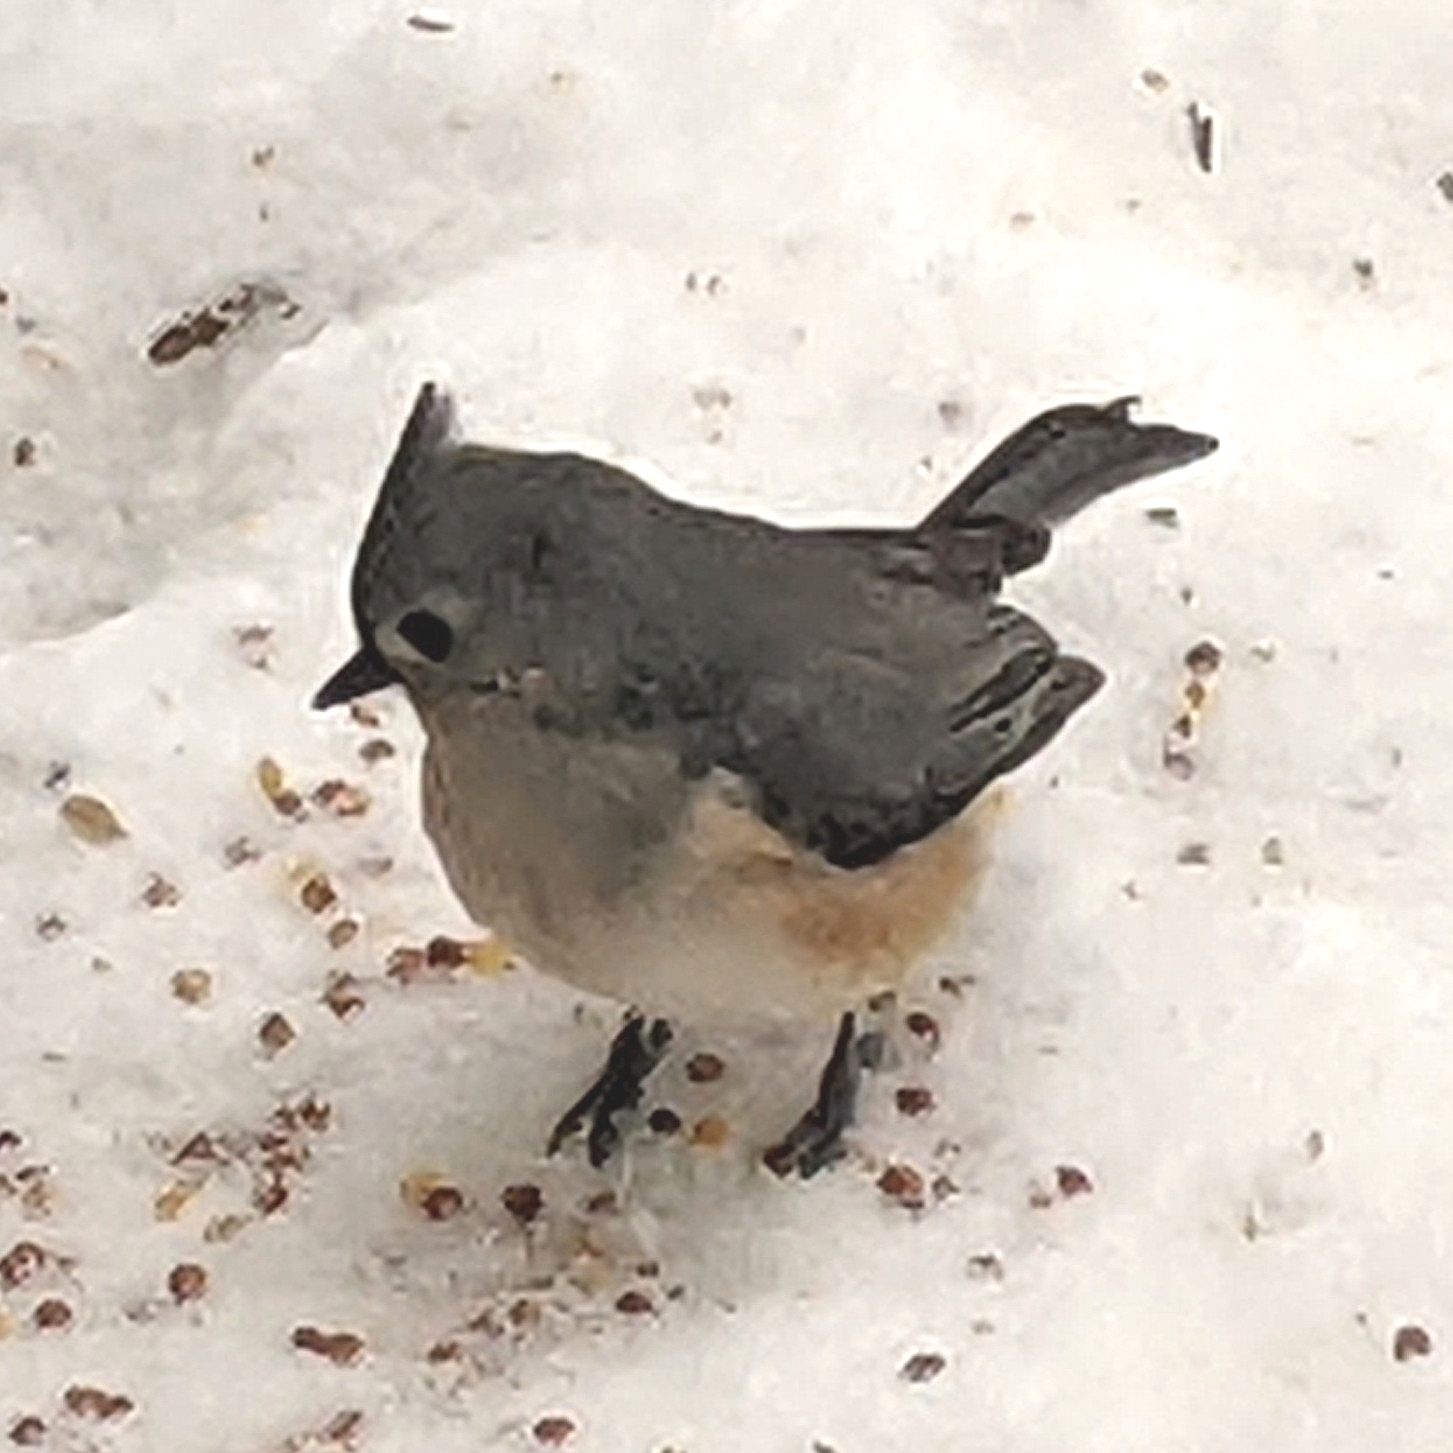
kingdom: Animalia
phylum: Chordata
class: Aves
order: Passeriformes
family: Paridae
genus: Baeolophus
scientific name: Baeolophus bicolor
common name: Tufted titmouse
